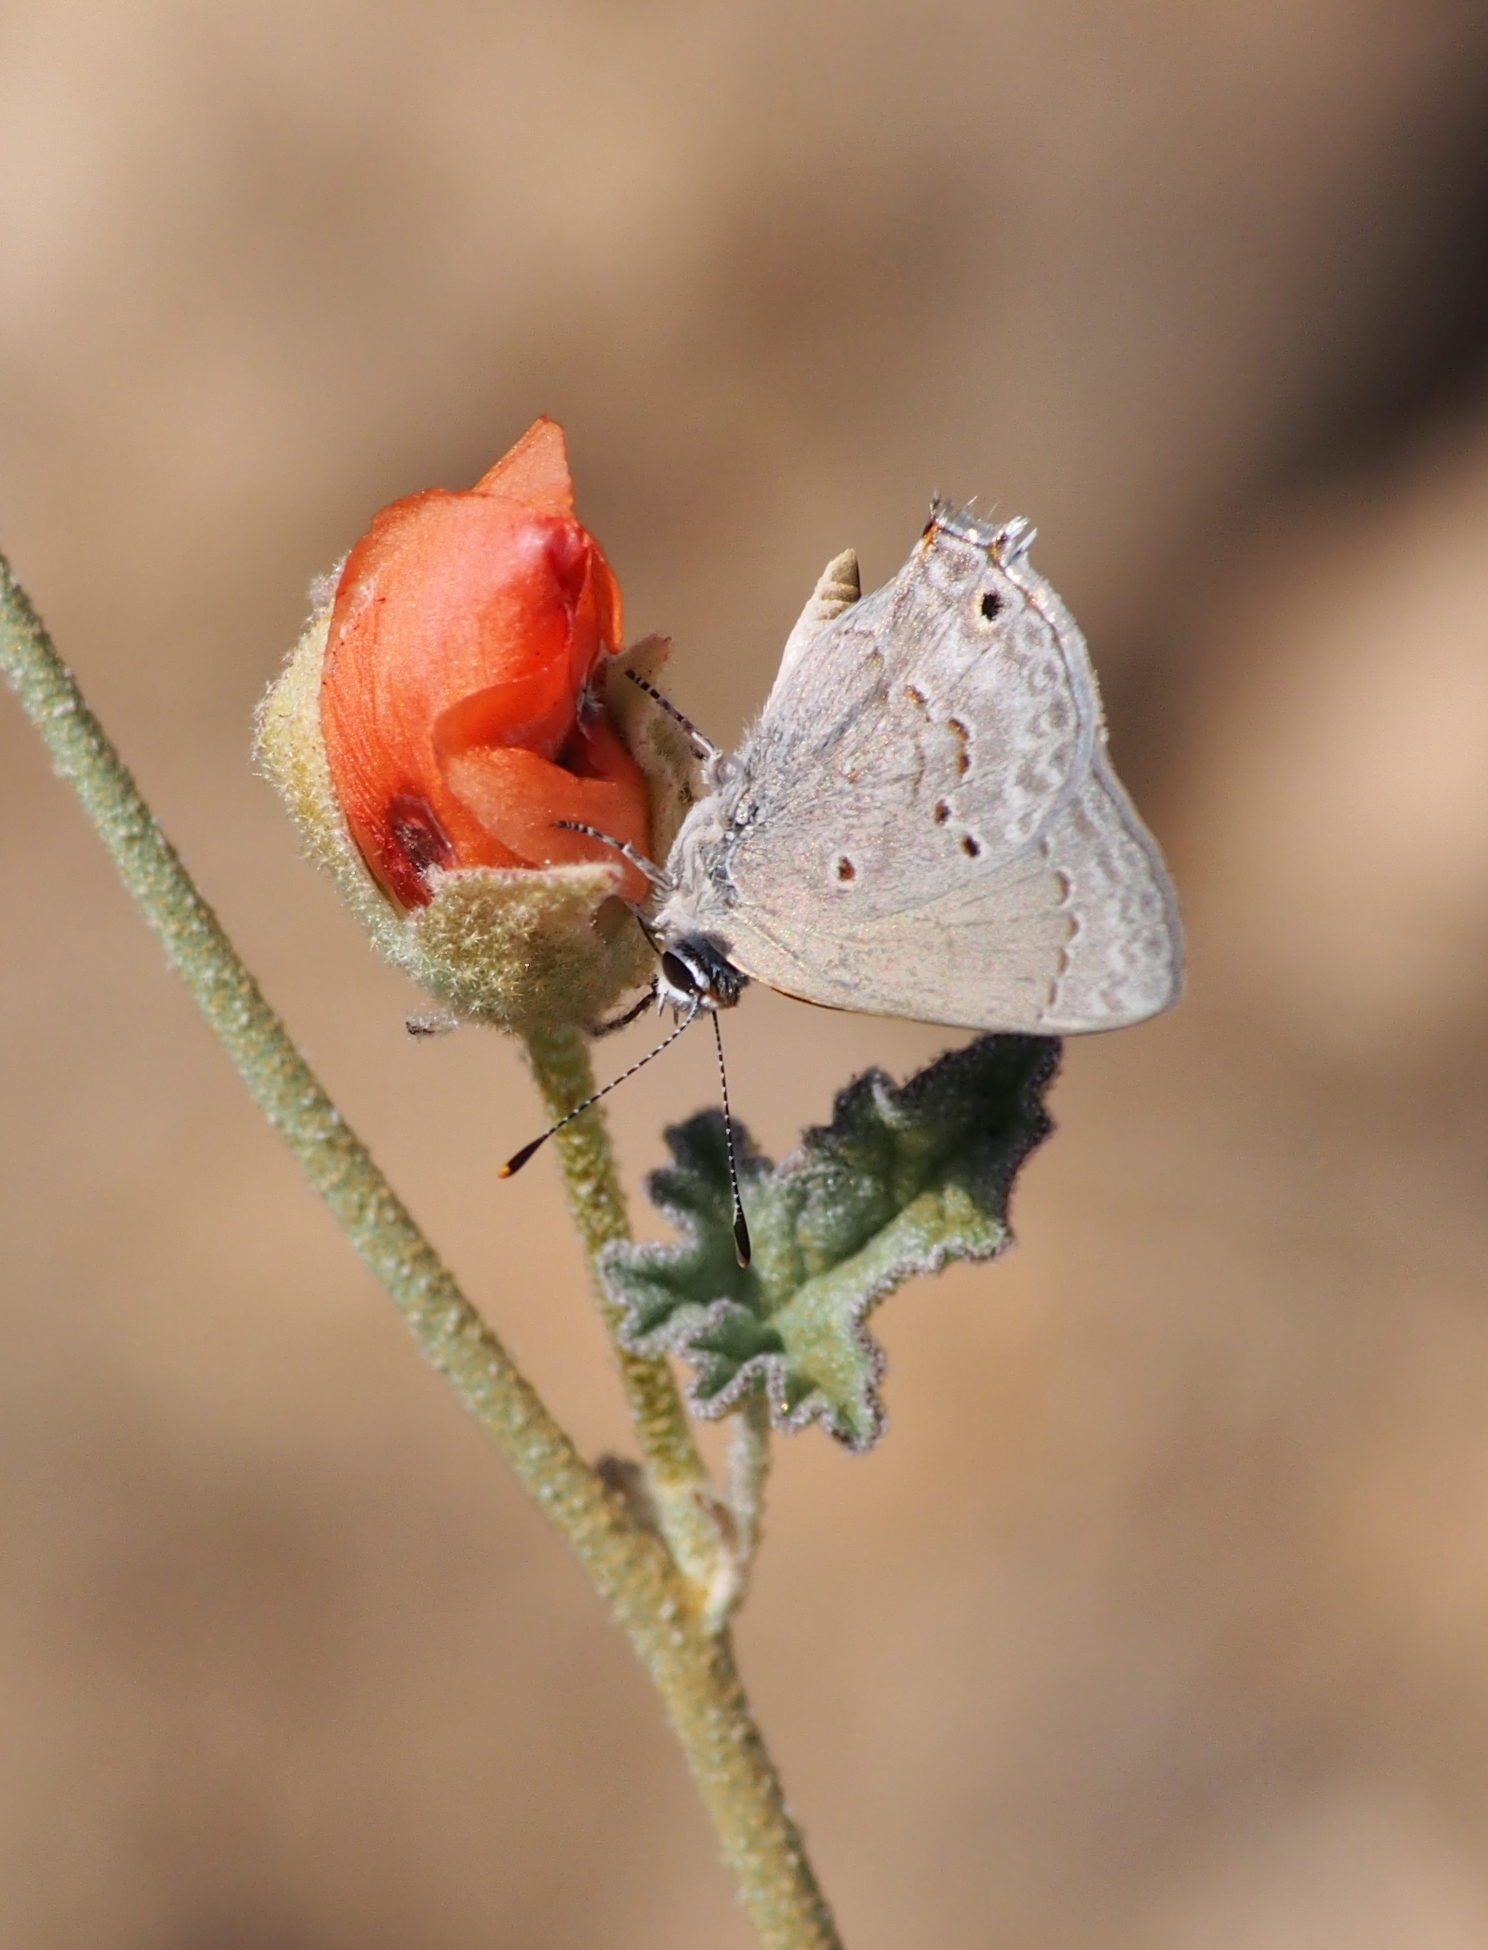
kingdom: Animalia
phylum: Arthropoda
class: Insecta
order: Lepidoptera
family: Lycaenidae
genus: Callicista
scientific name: Callicista columella
